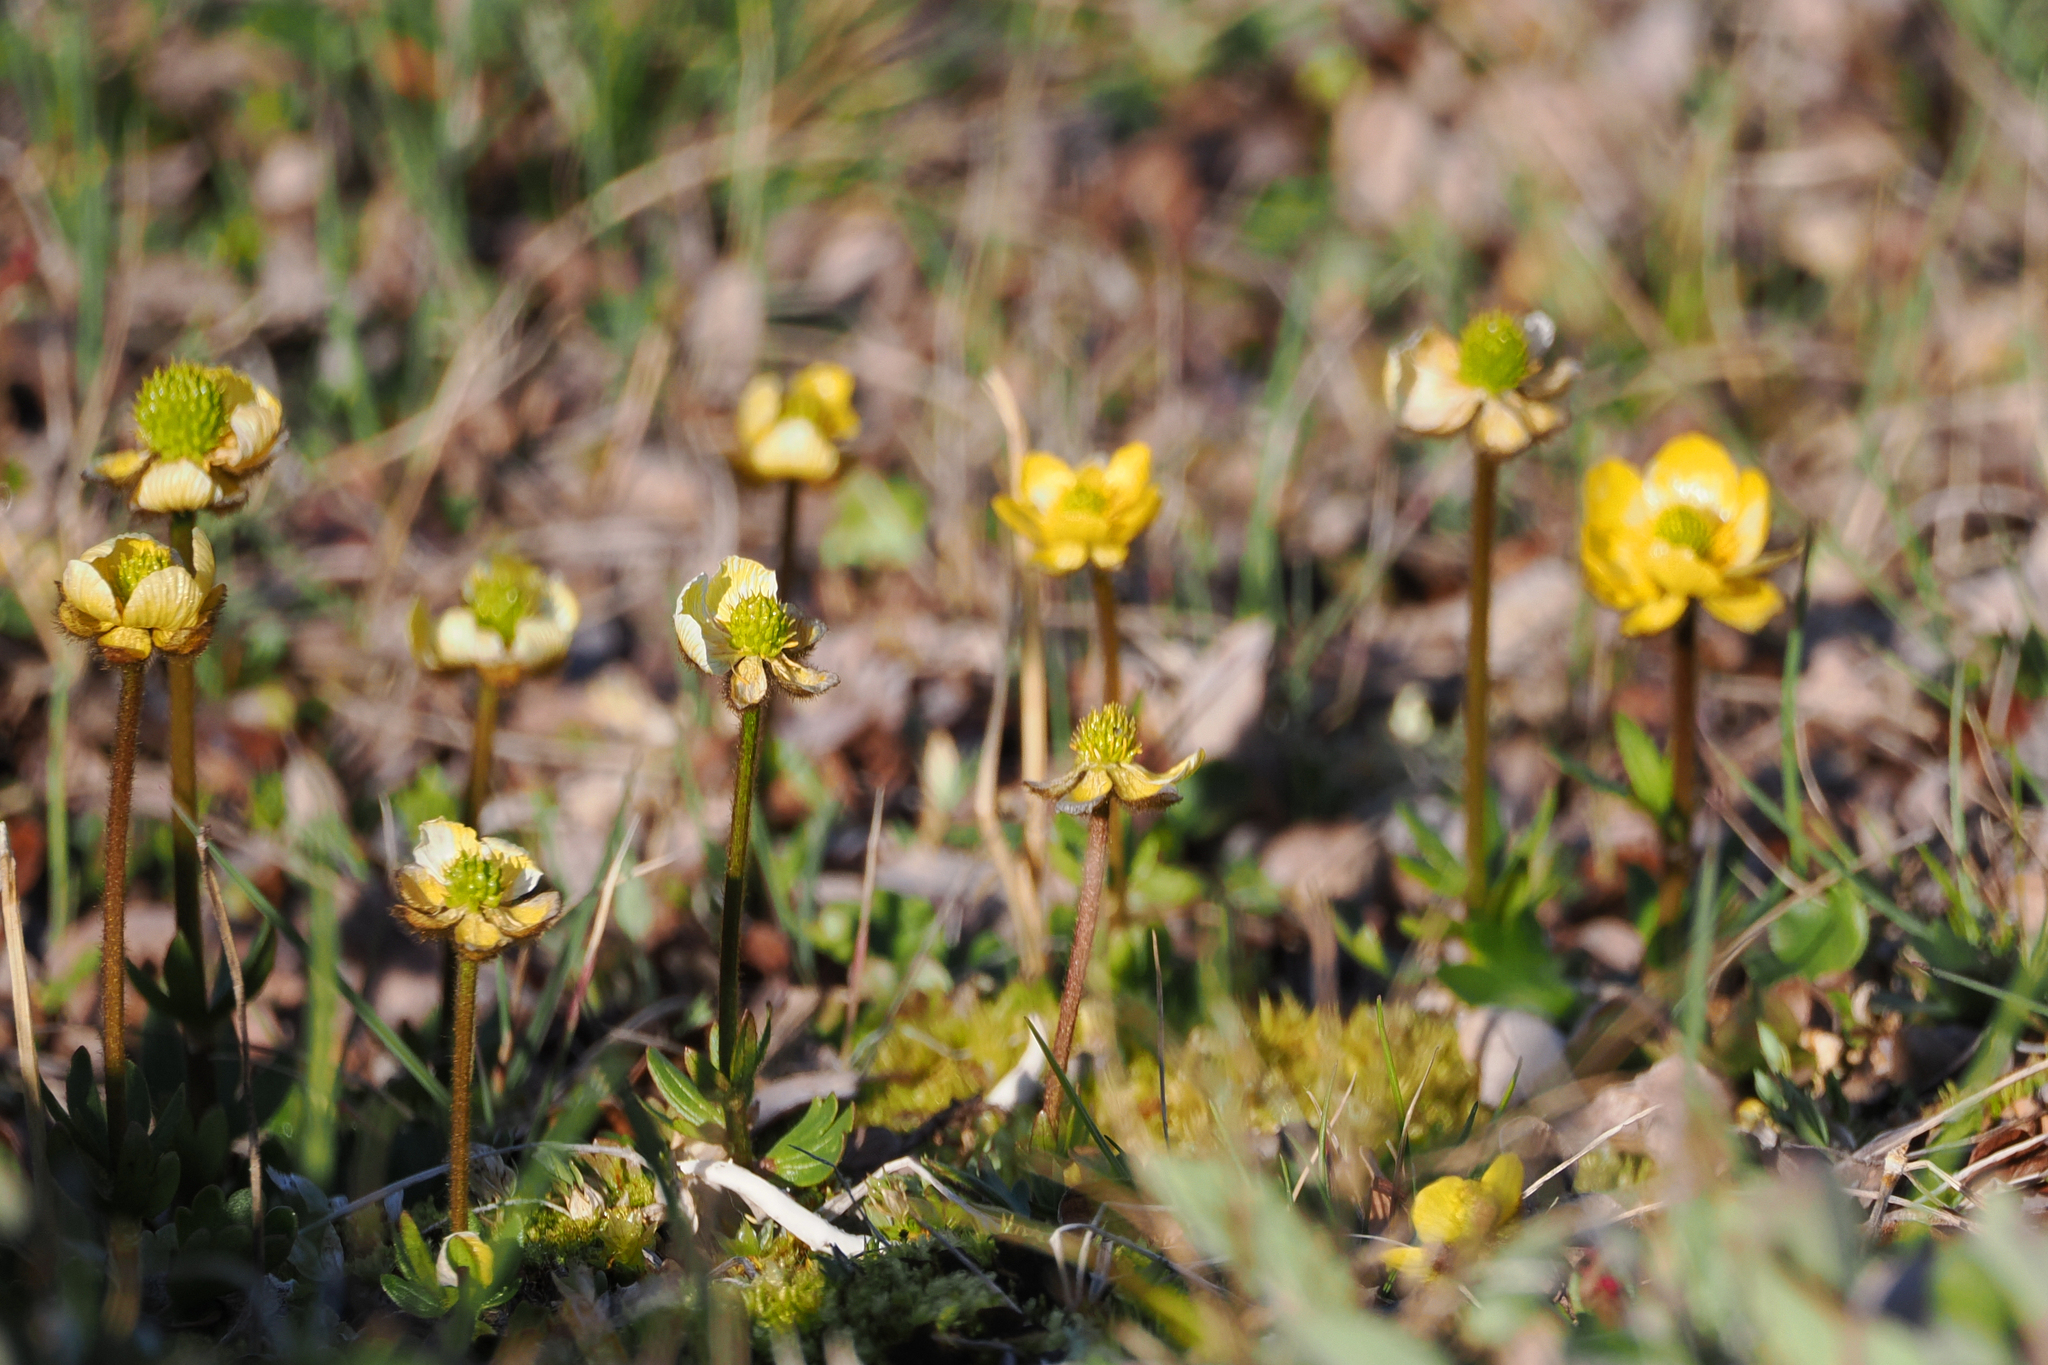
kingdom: Plantae
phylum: Tracheophyta
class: Magnoliopsida
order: Ranunculales
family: Ranunculaceae
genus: Ranunculus
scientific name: Ranunculus arcticus
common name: Bird's-foot buttercup
